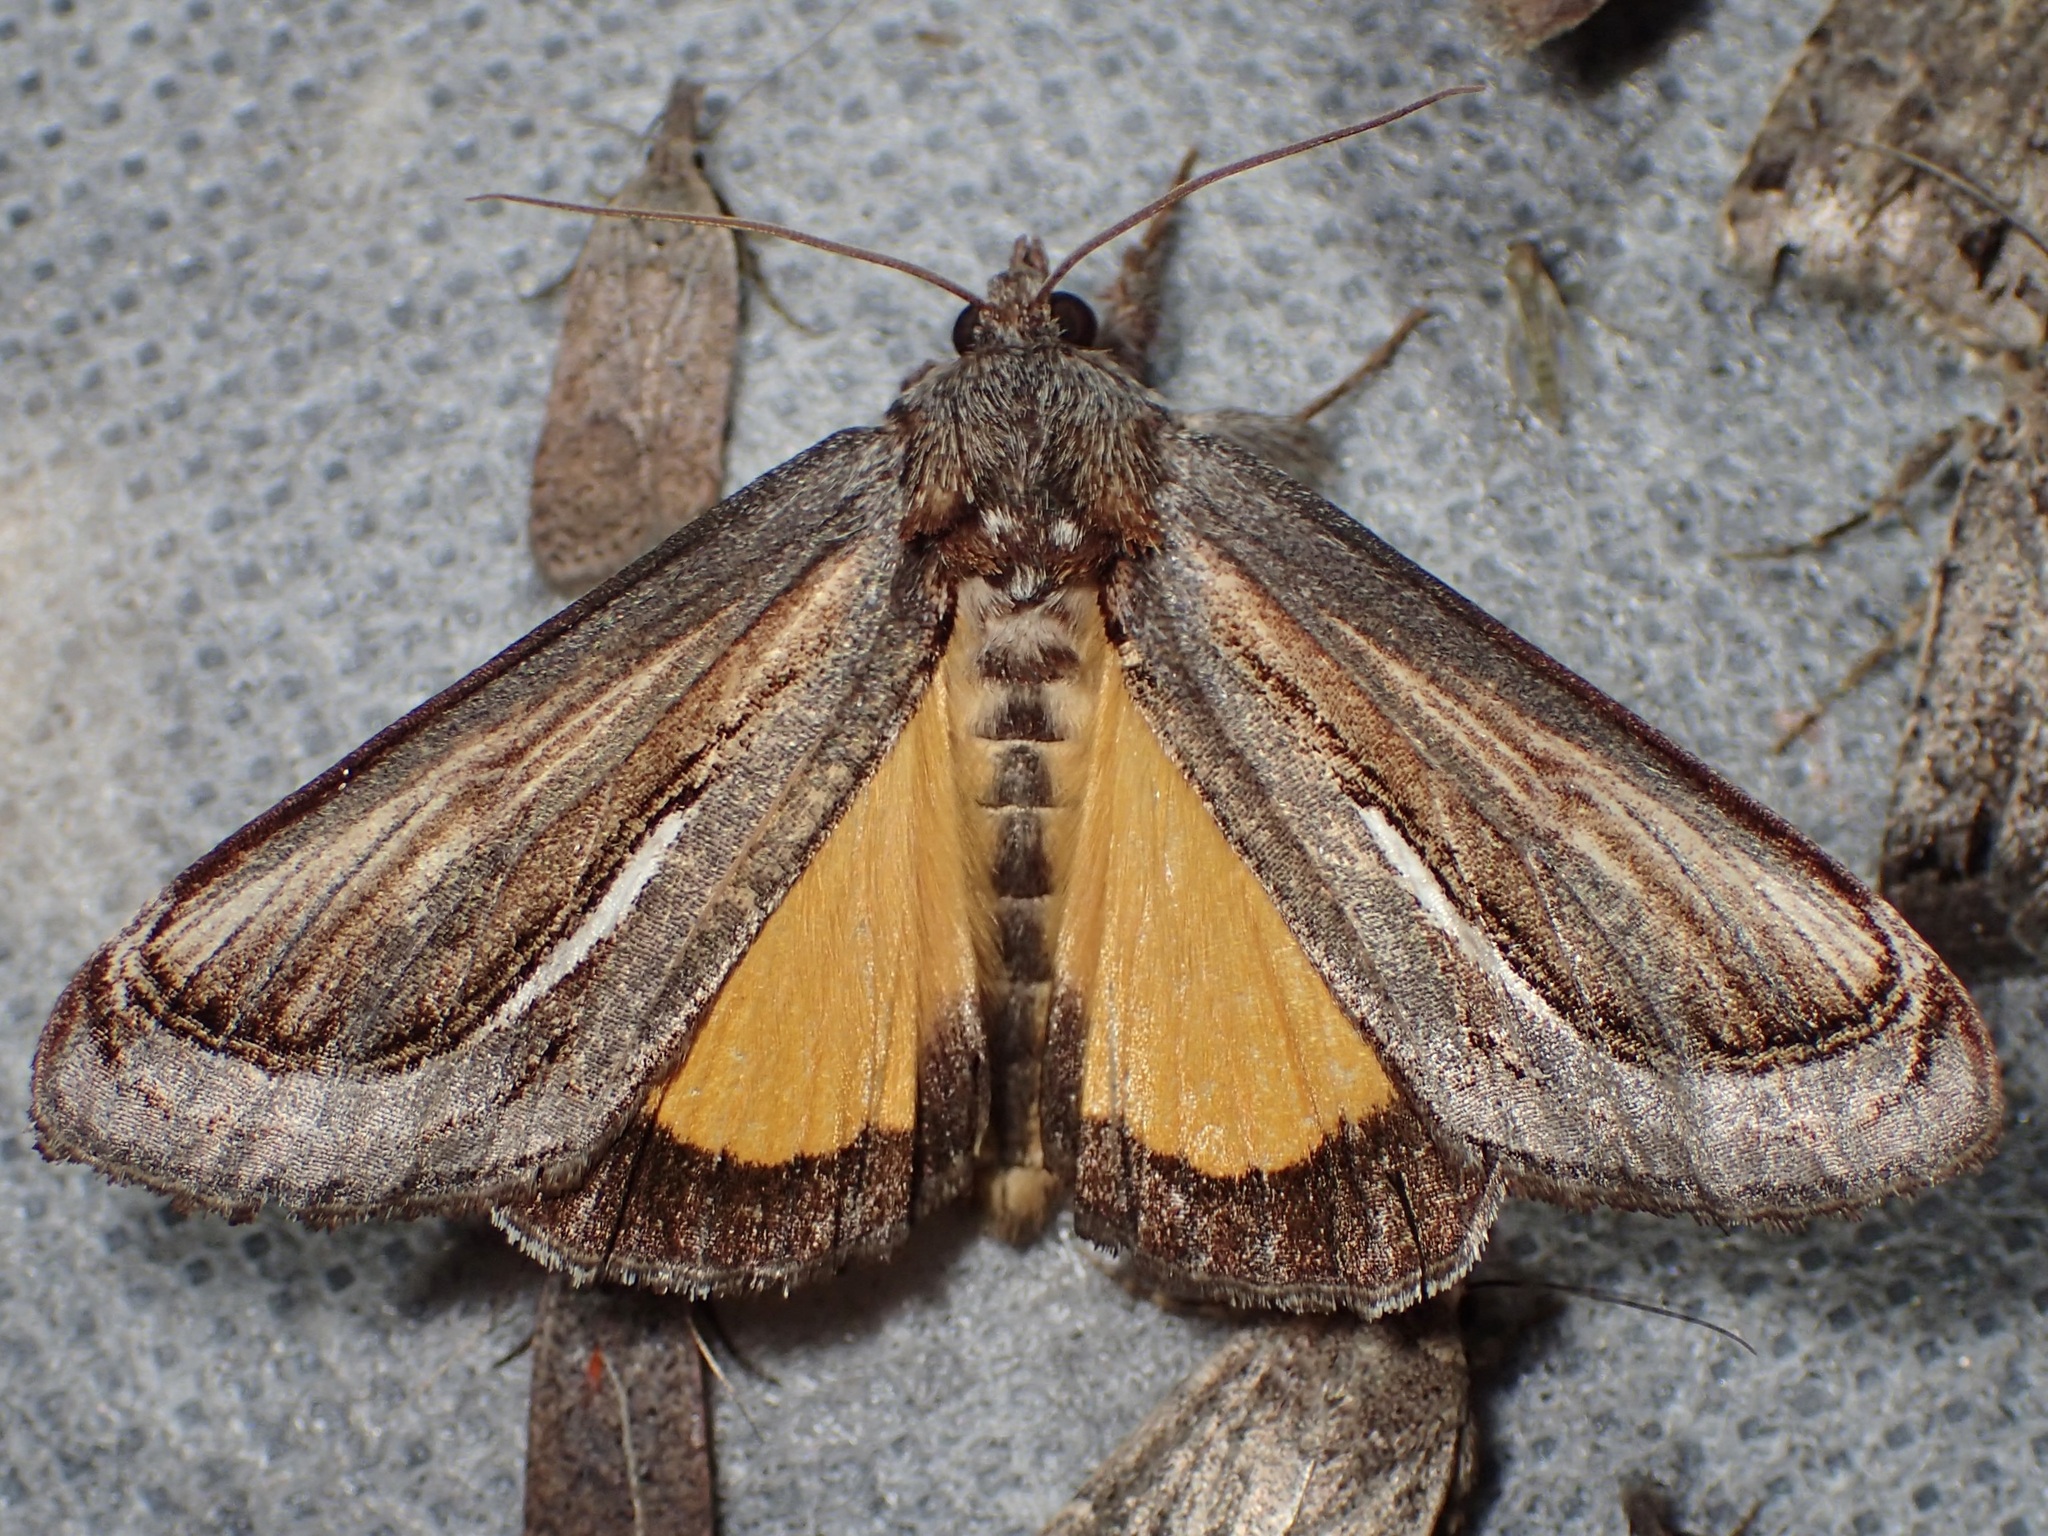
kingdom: Animalia
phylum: Arthropoda
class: Insecta
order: Lepidoptera
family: Noctuidae
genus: Gerrodes
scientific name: Gerrodes minatea
